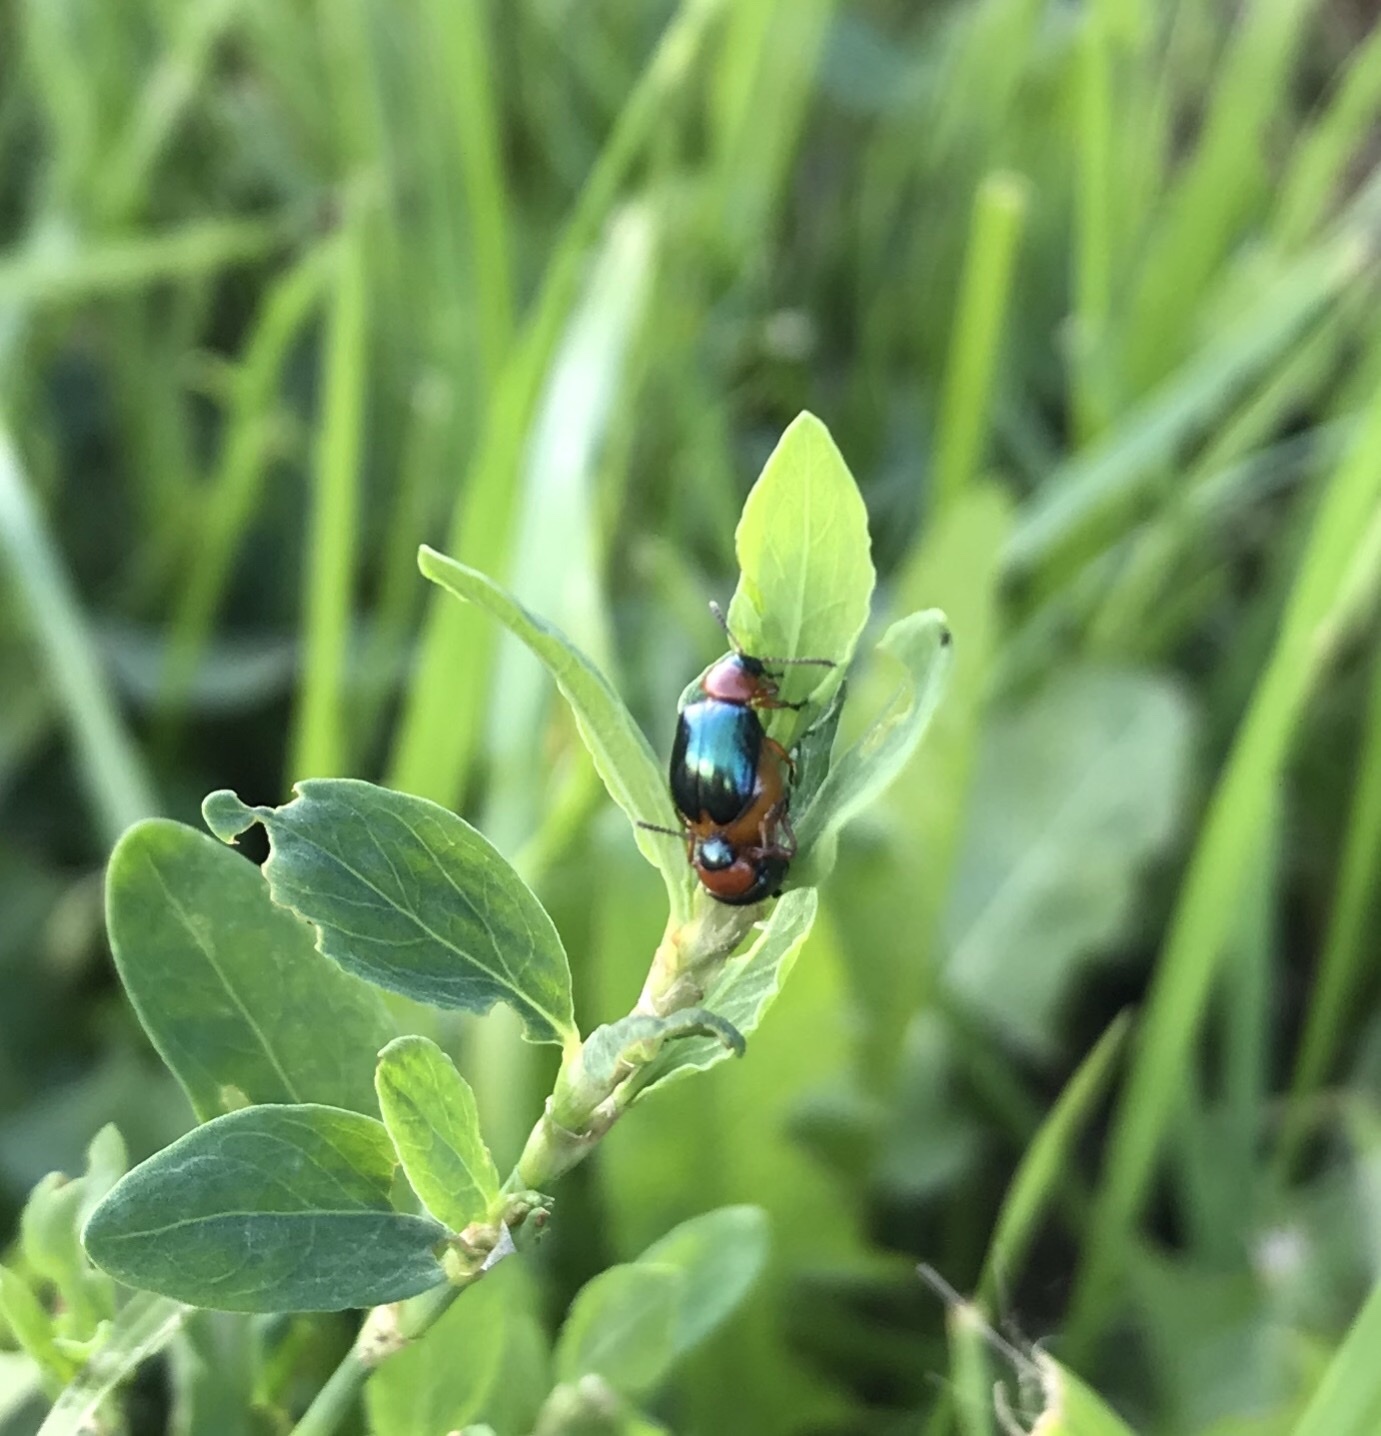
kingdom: Animalia
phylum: Arthropoda
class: Insecta
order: Coleoptera
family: Chrysomelidae
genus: Gastrophysa
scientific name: Gastrophysa polygoni
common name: Knotweed leaf beetle
